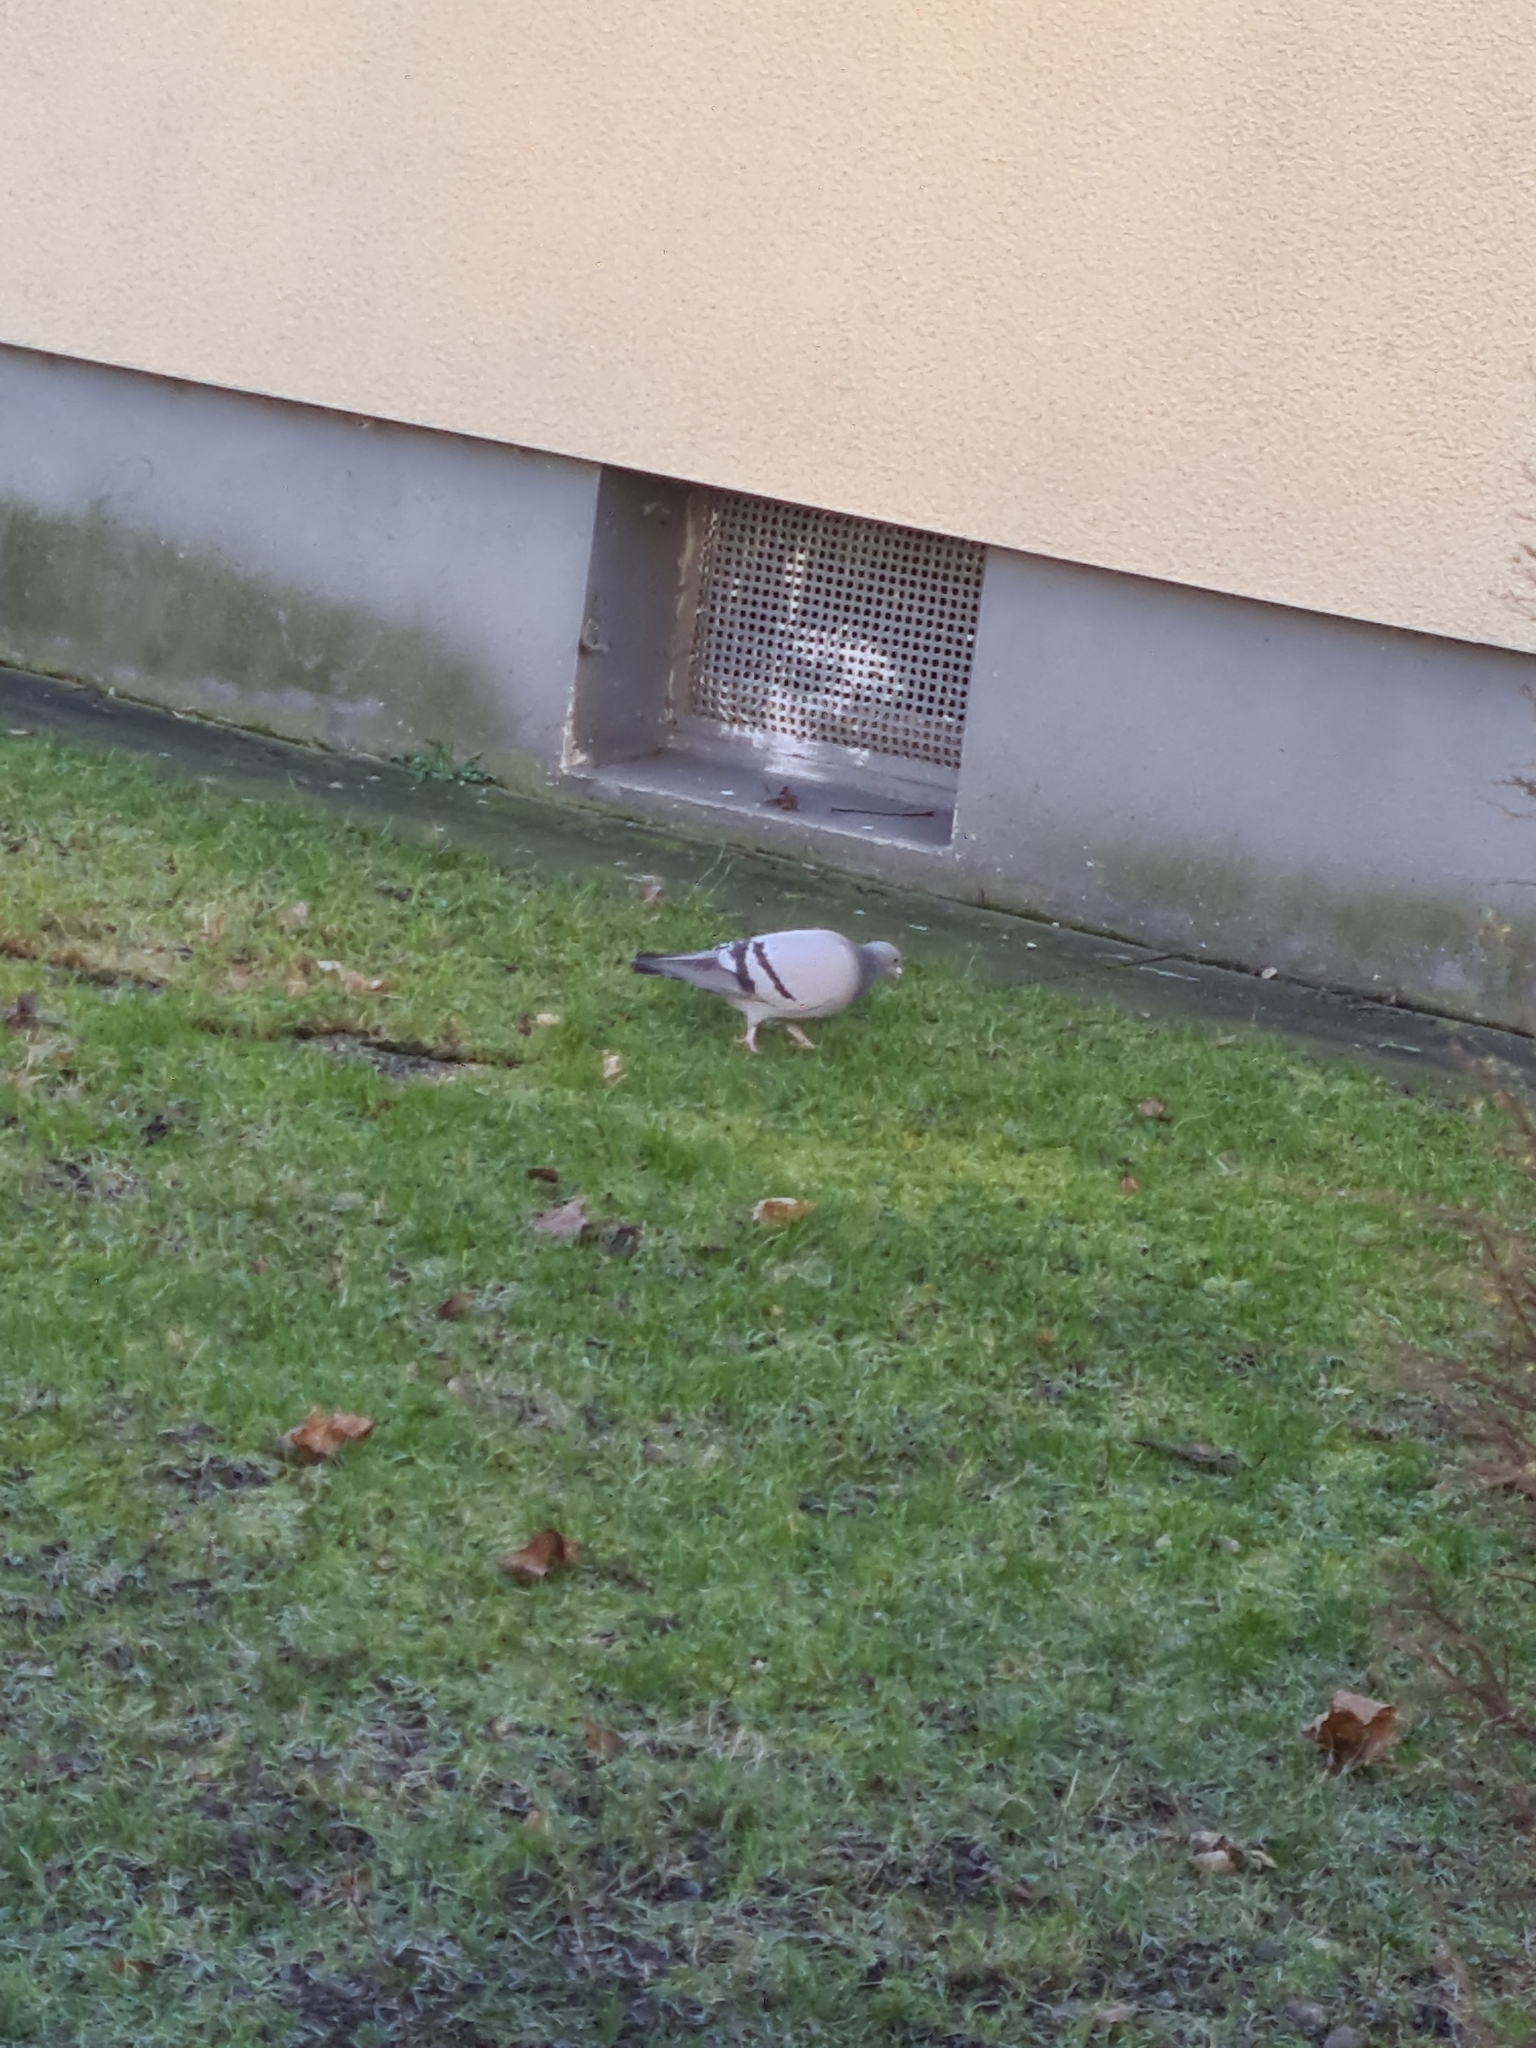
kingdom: Animalia
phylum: Chordata
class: Aves
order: Columbiformes
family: Columbidae
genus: Columba
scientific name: Columba livia
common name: Rock pigeon
